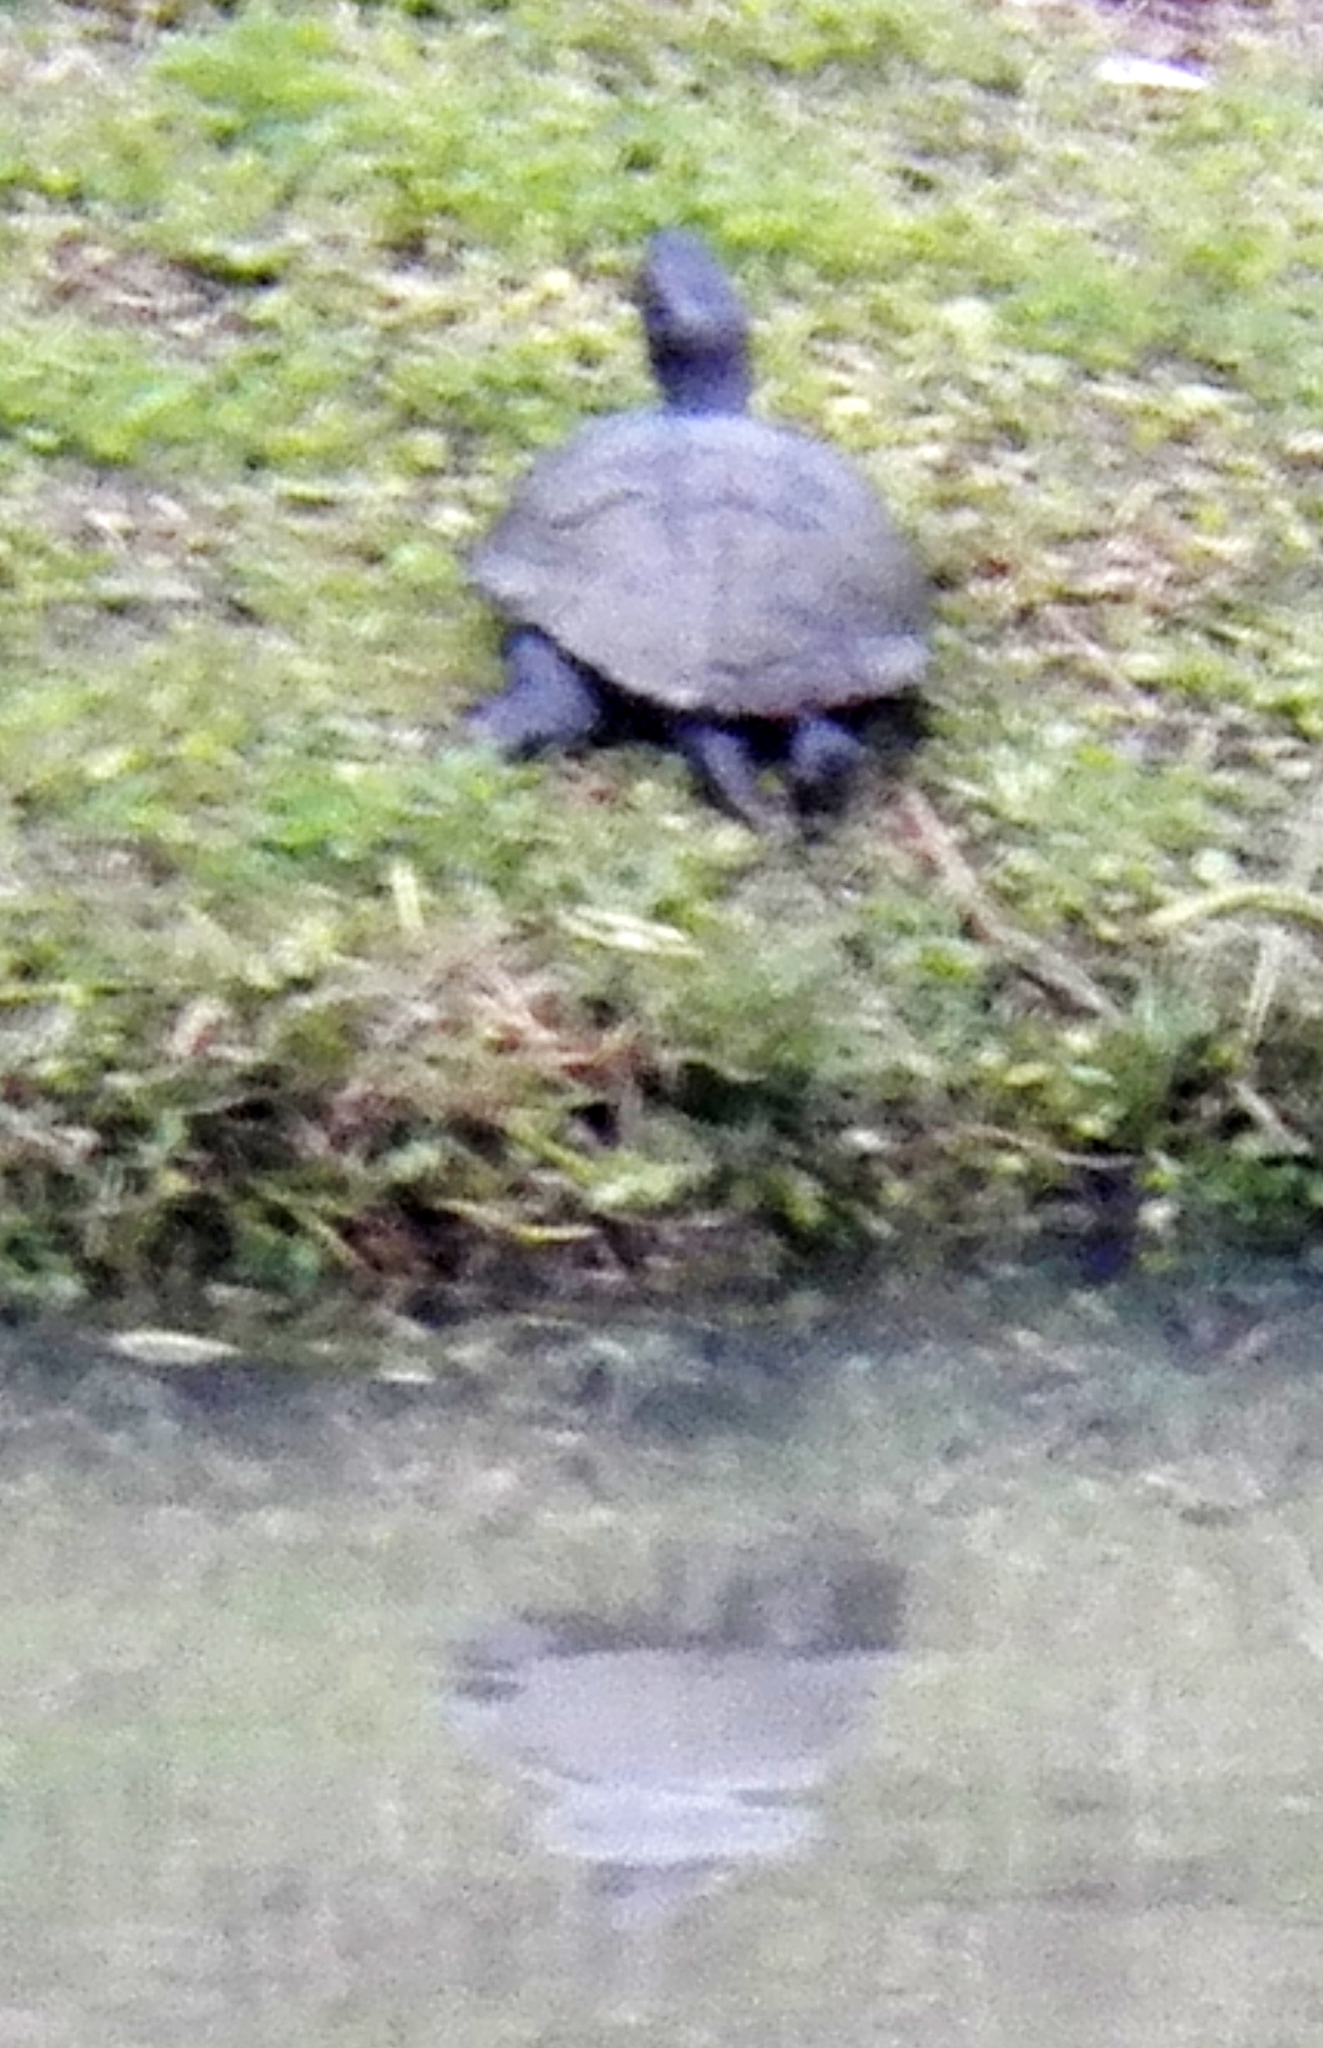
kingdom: Animalia
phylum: Chordata
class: Testudines
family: Emydidae
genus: Trachemys
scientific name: Trachemys scripta
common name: Slider
